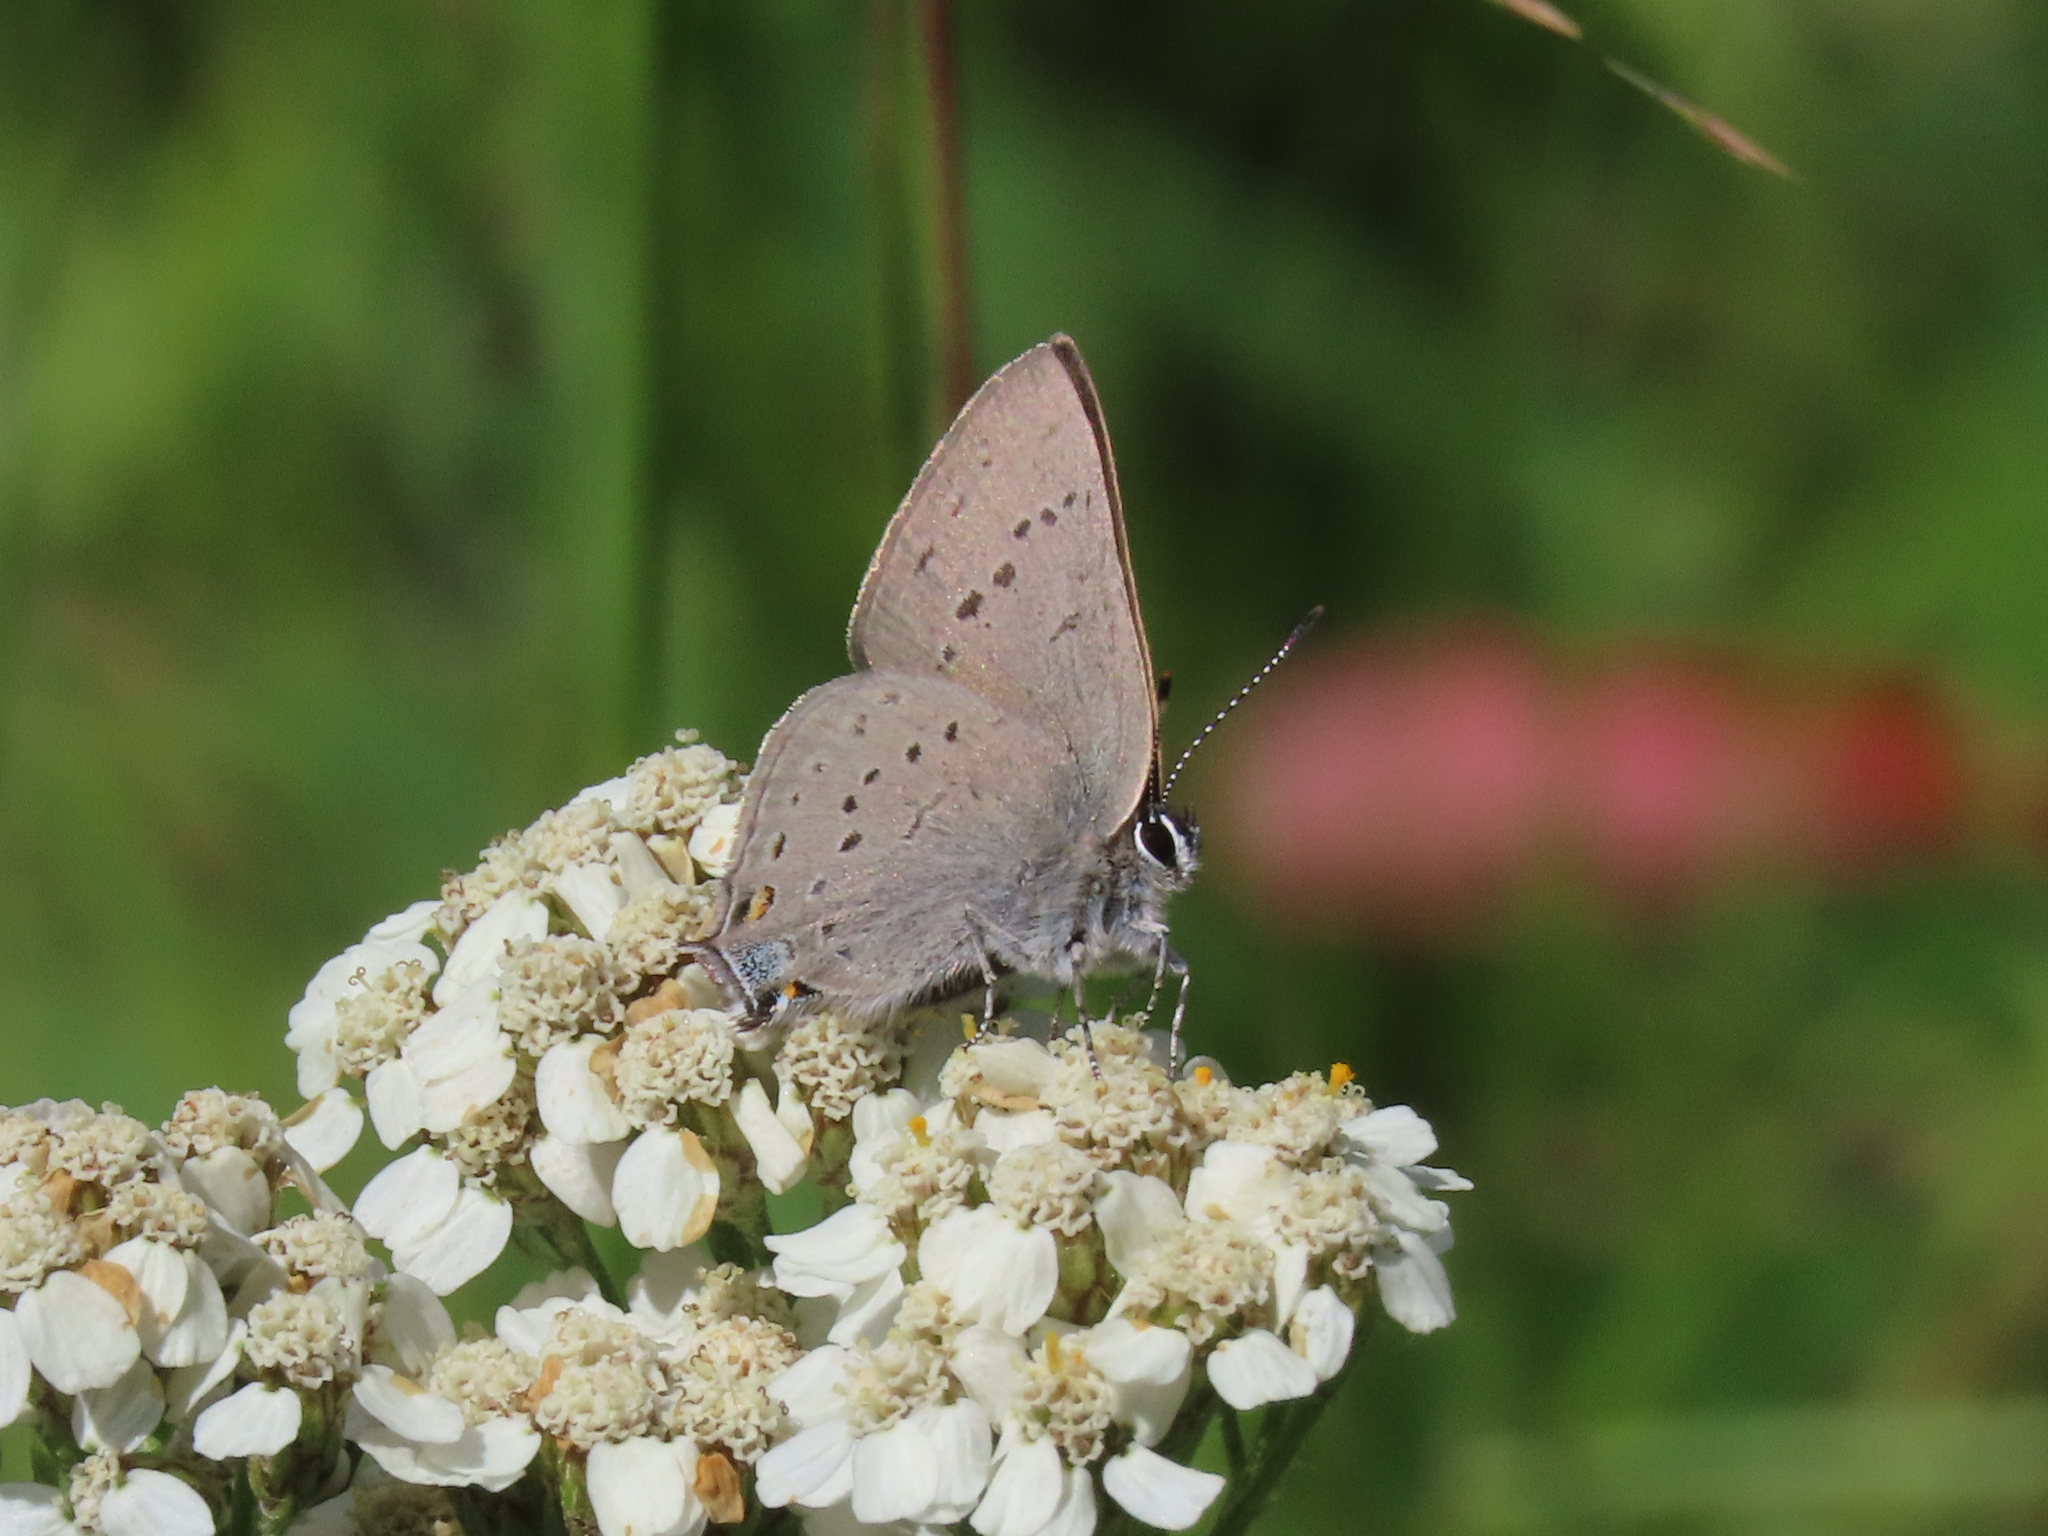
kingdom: Animalia
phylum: Arthropoda
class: Insecta
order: Lepidoptera
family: Lycaenidae
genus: Strymon
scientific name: Strymon sylvinus
